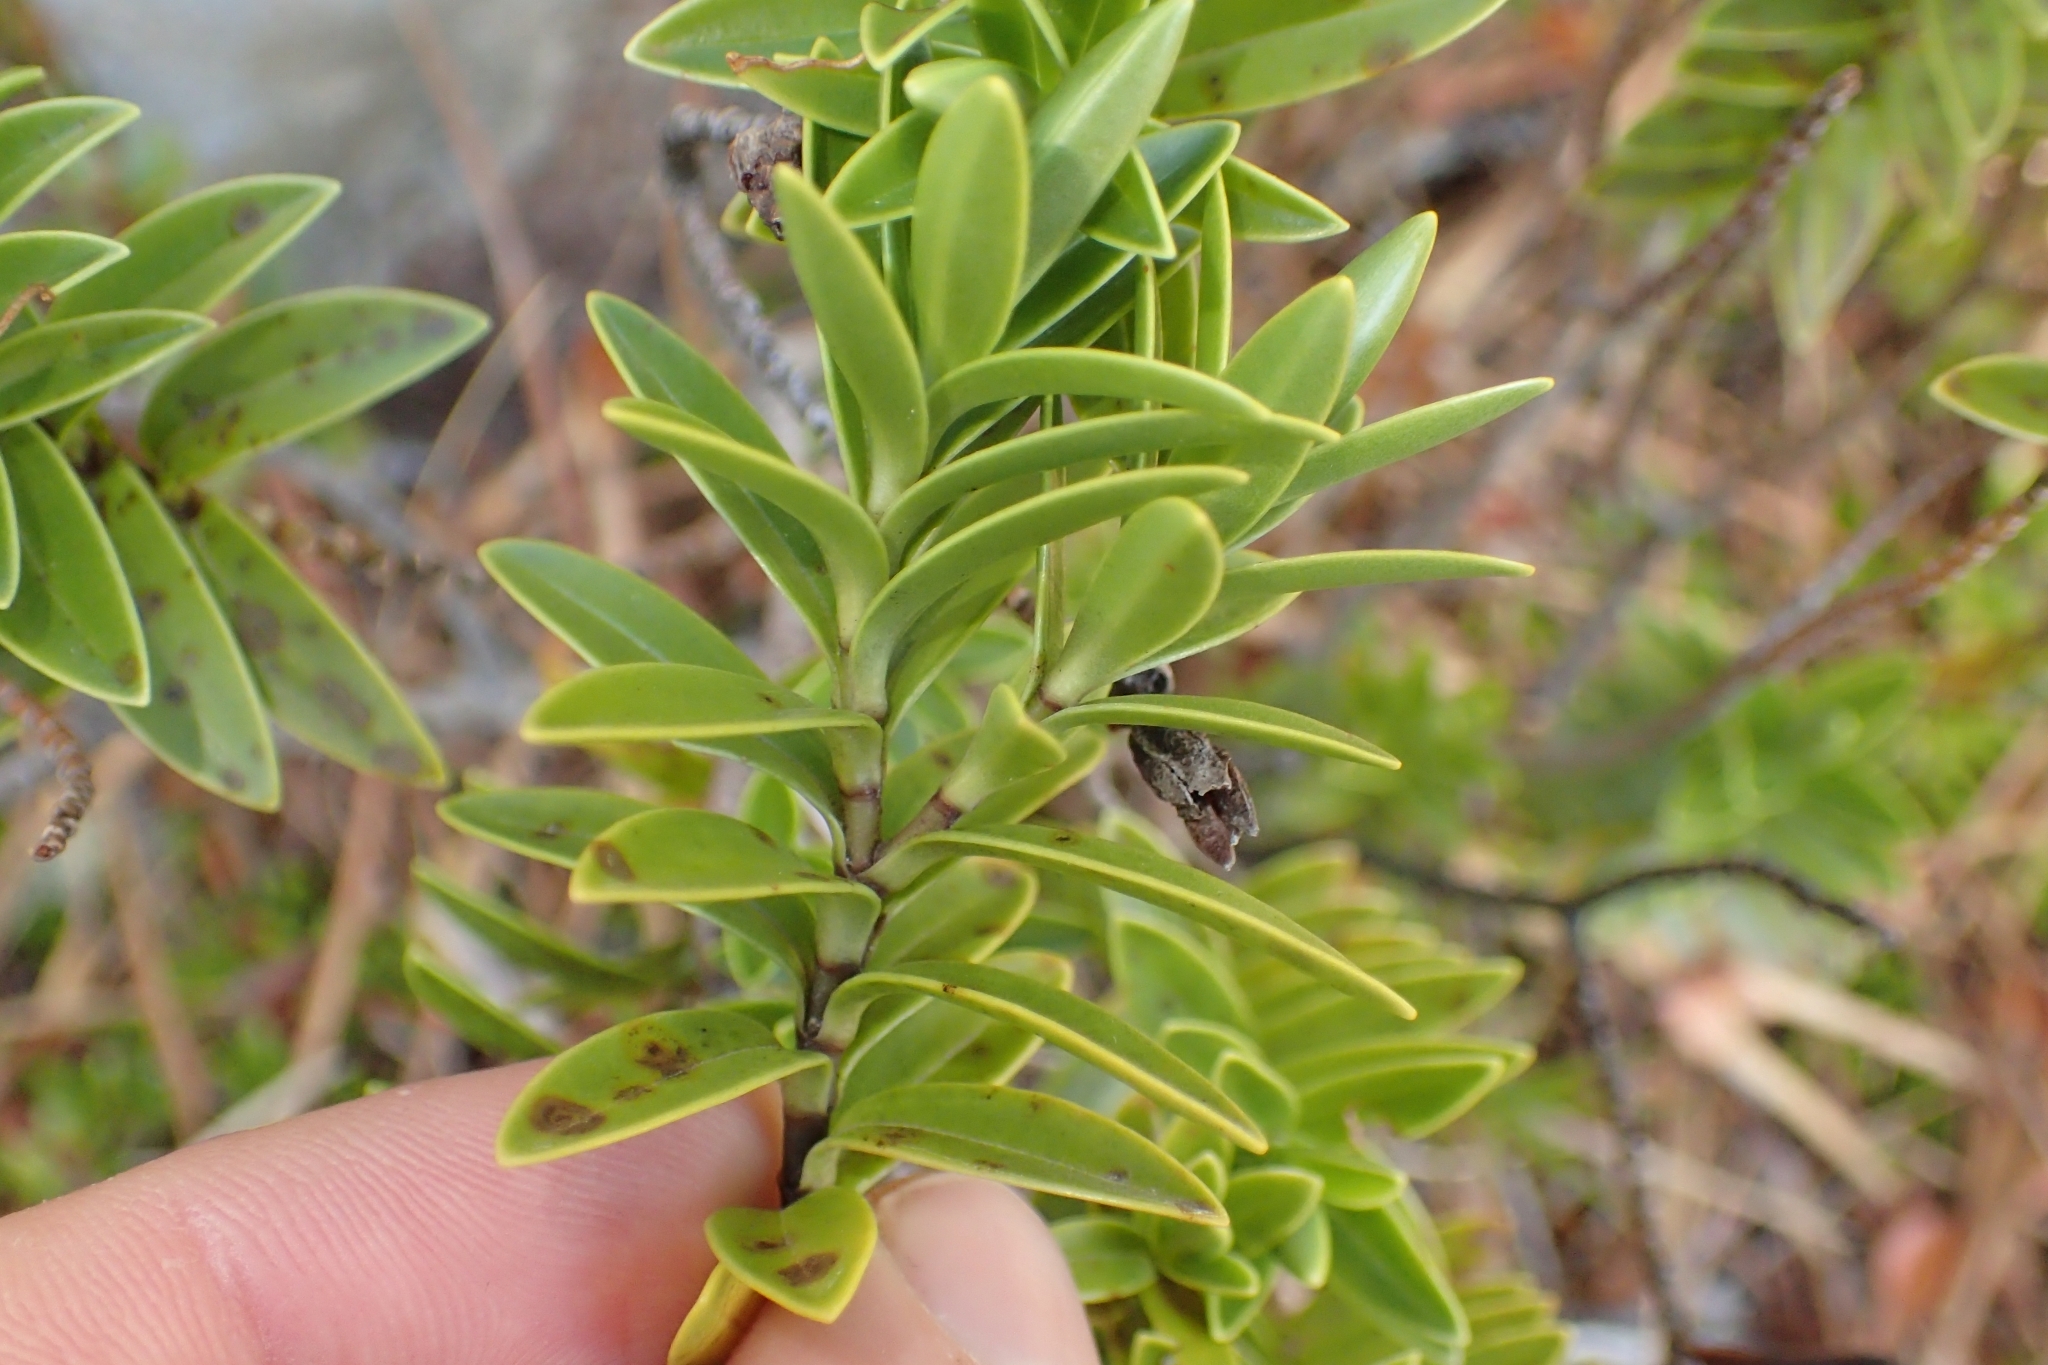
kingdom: Plantae
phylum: Tracheophyta
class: Magnoliopsida
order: Lamiales
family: Plantaginaceae
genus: Veronica
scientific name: Veronica subalpina
